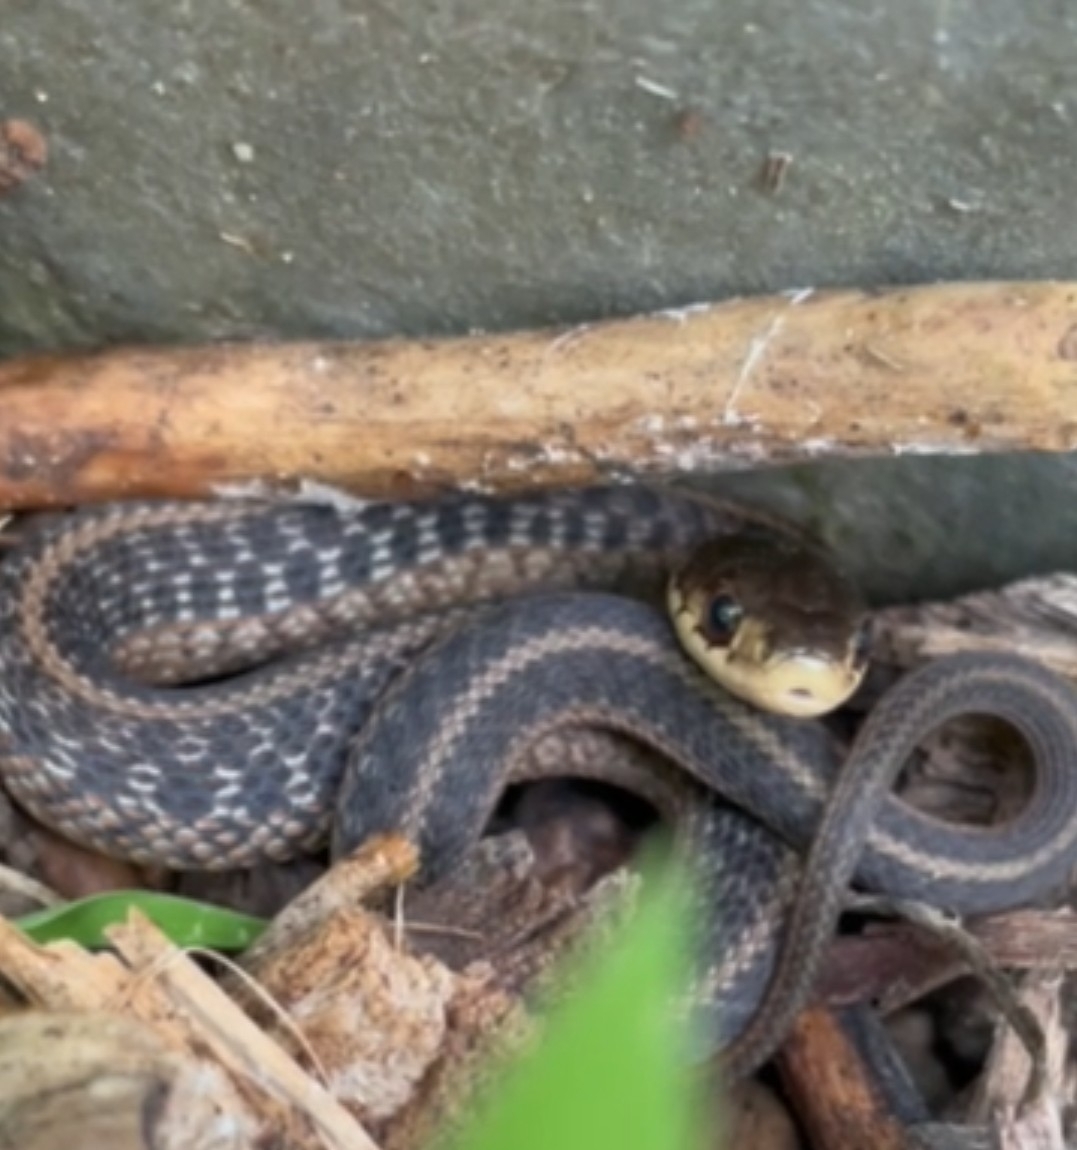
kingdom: Animalia
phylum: Chordata
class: Squamata
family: Colubridae
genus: Thamnophis
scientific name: Thamnophis sirtalis
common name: Common garter snake
